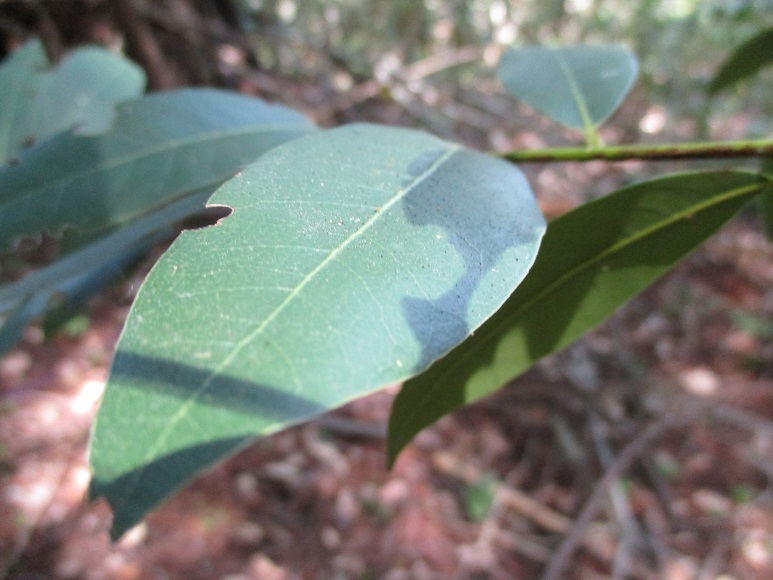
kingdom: Plantae
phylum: Tracheophyta
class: Magnoliopsida
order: Laurales
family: Lauraceae
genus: Umbellularia
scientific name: Umbellularia californica
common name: California bay
